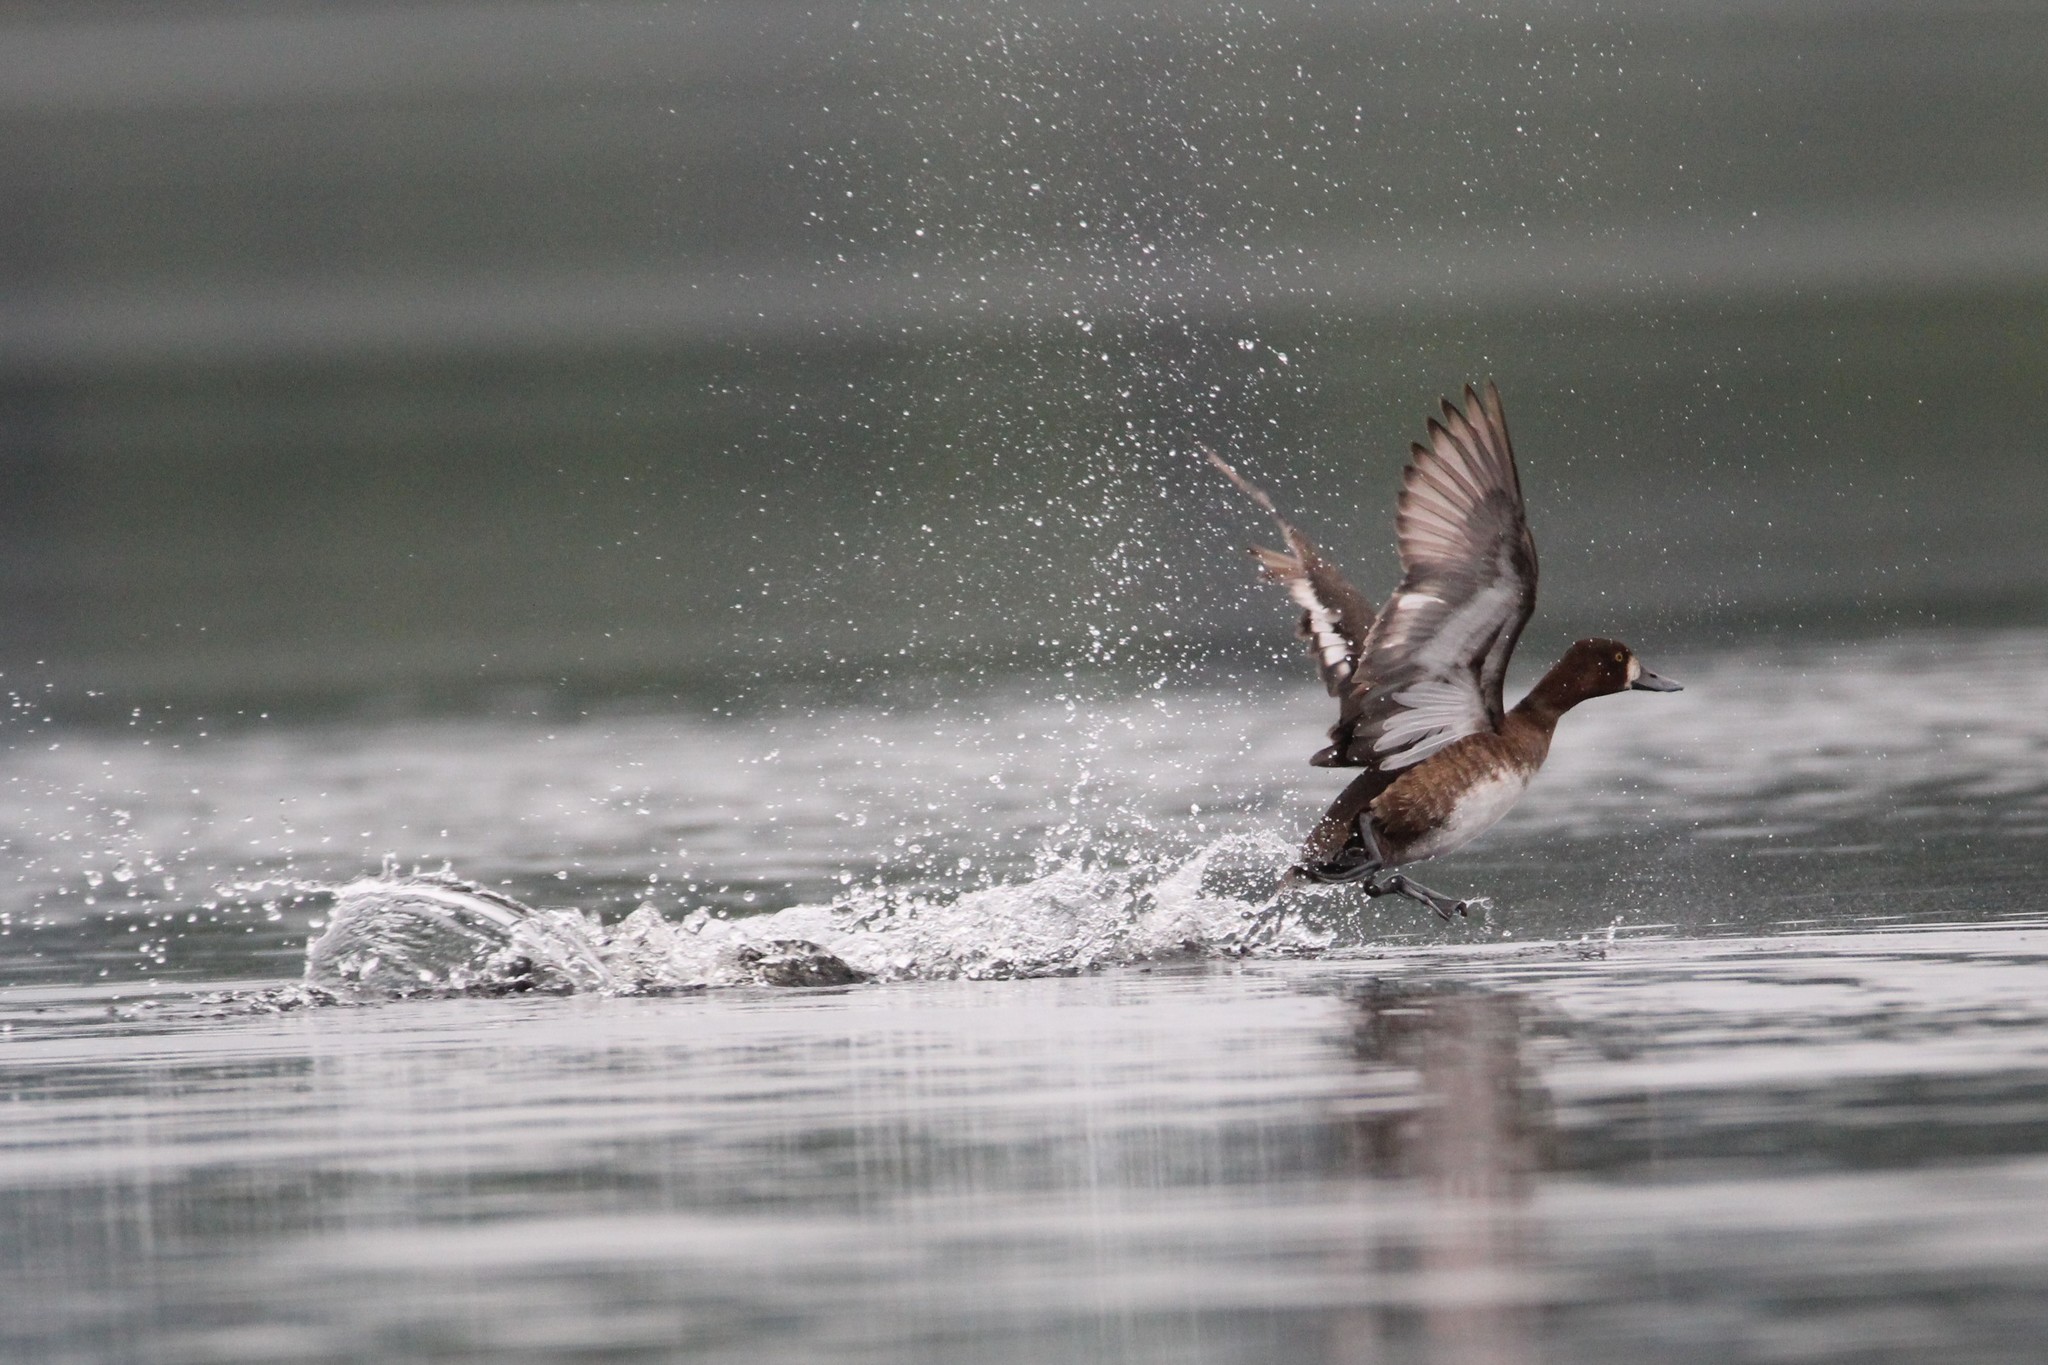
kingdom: Animalia
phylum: Chordata
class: Aves
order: Anseriformes
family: Anatidae
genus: Aythya
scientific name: Aythya affinis
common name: Lesser scaup
